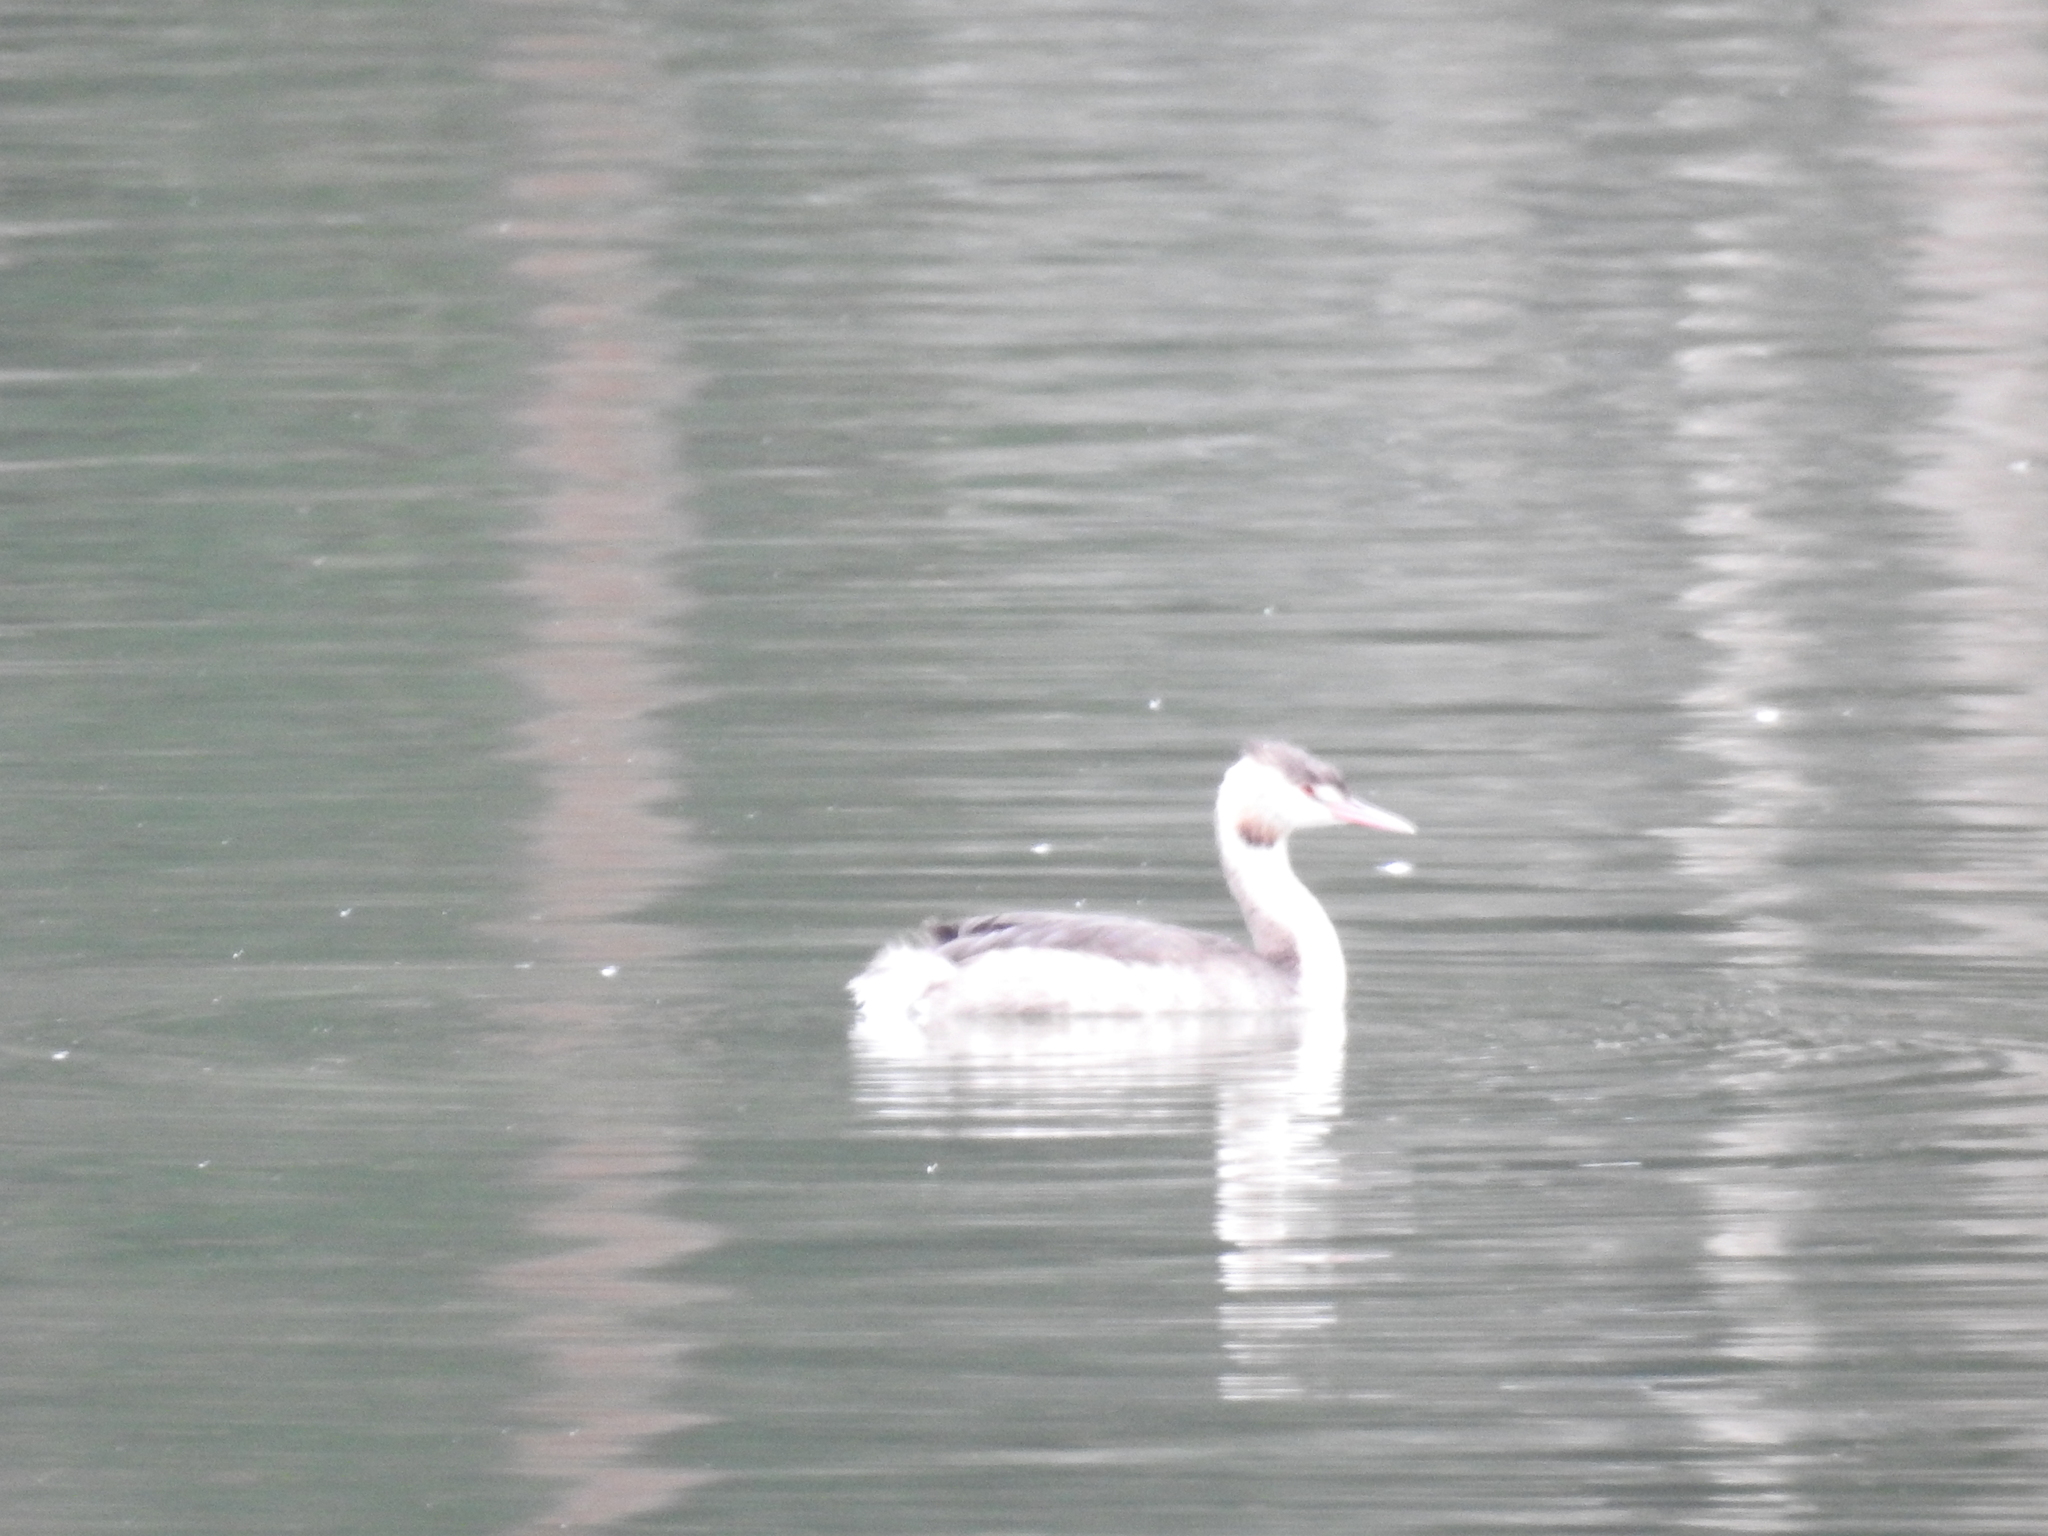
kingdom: Animalia
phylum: Chordata
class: Aves
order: Podicipediformes
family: Podicipedidae
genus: Podiceps
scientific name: Podiceps cristatus
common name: Great crested grebe
